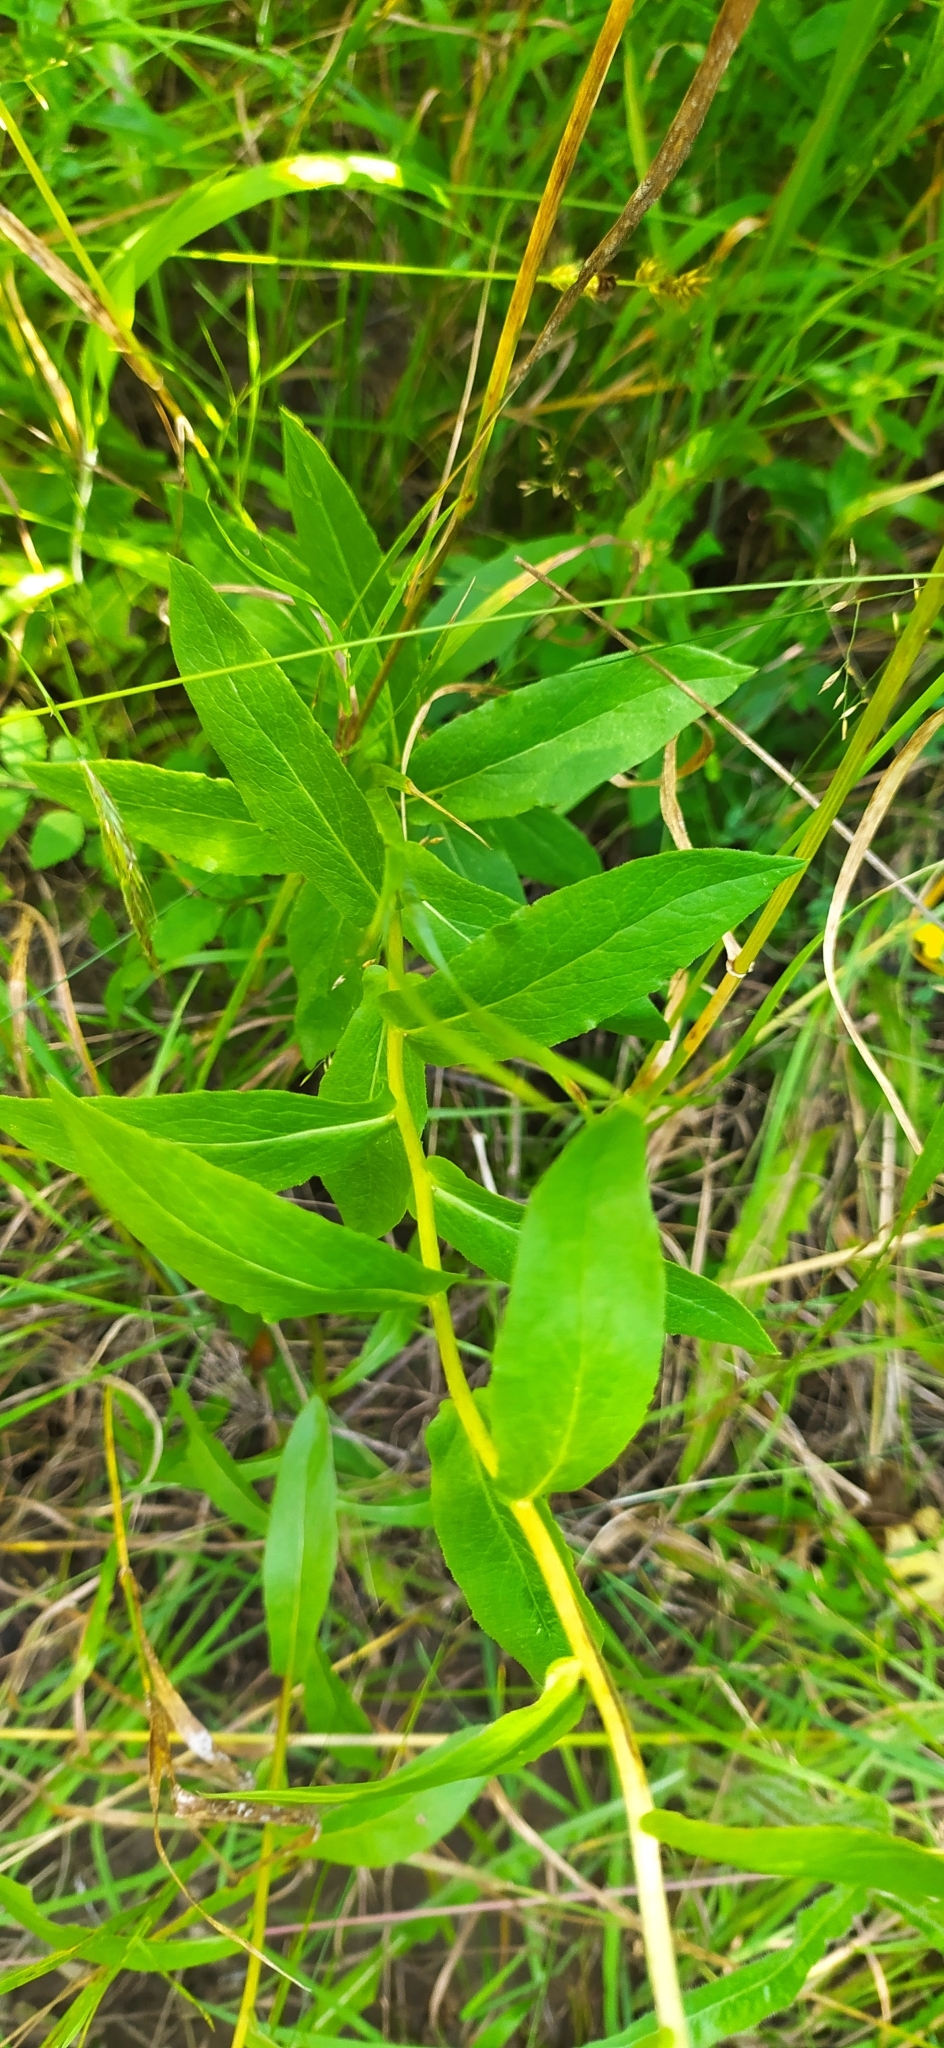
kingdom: Plantae
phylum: Tracheophyta
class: Magnoliopsida
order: Asterales
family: Asteraceae
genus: Pentanema
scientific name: Pentanema salicinum
